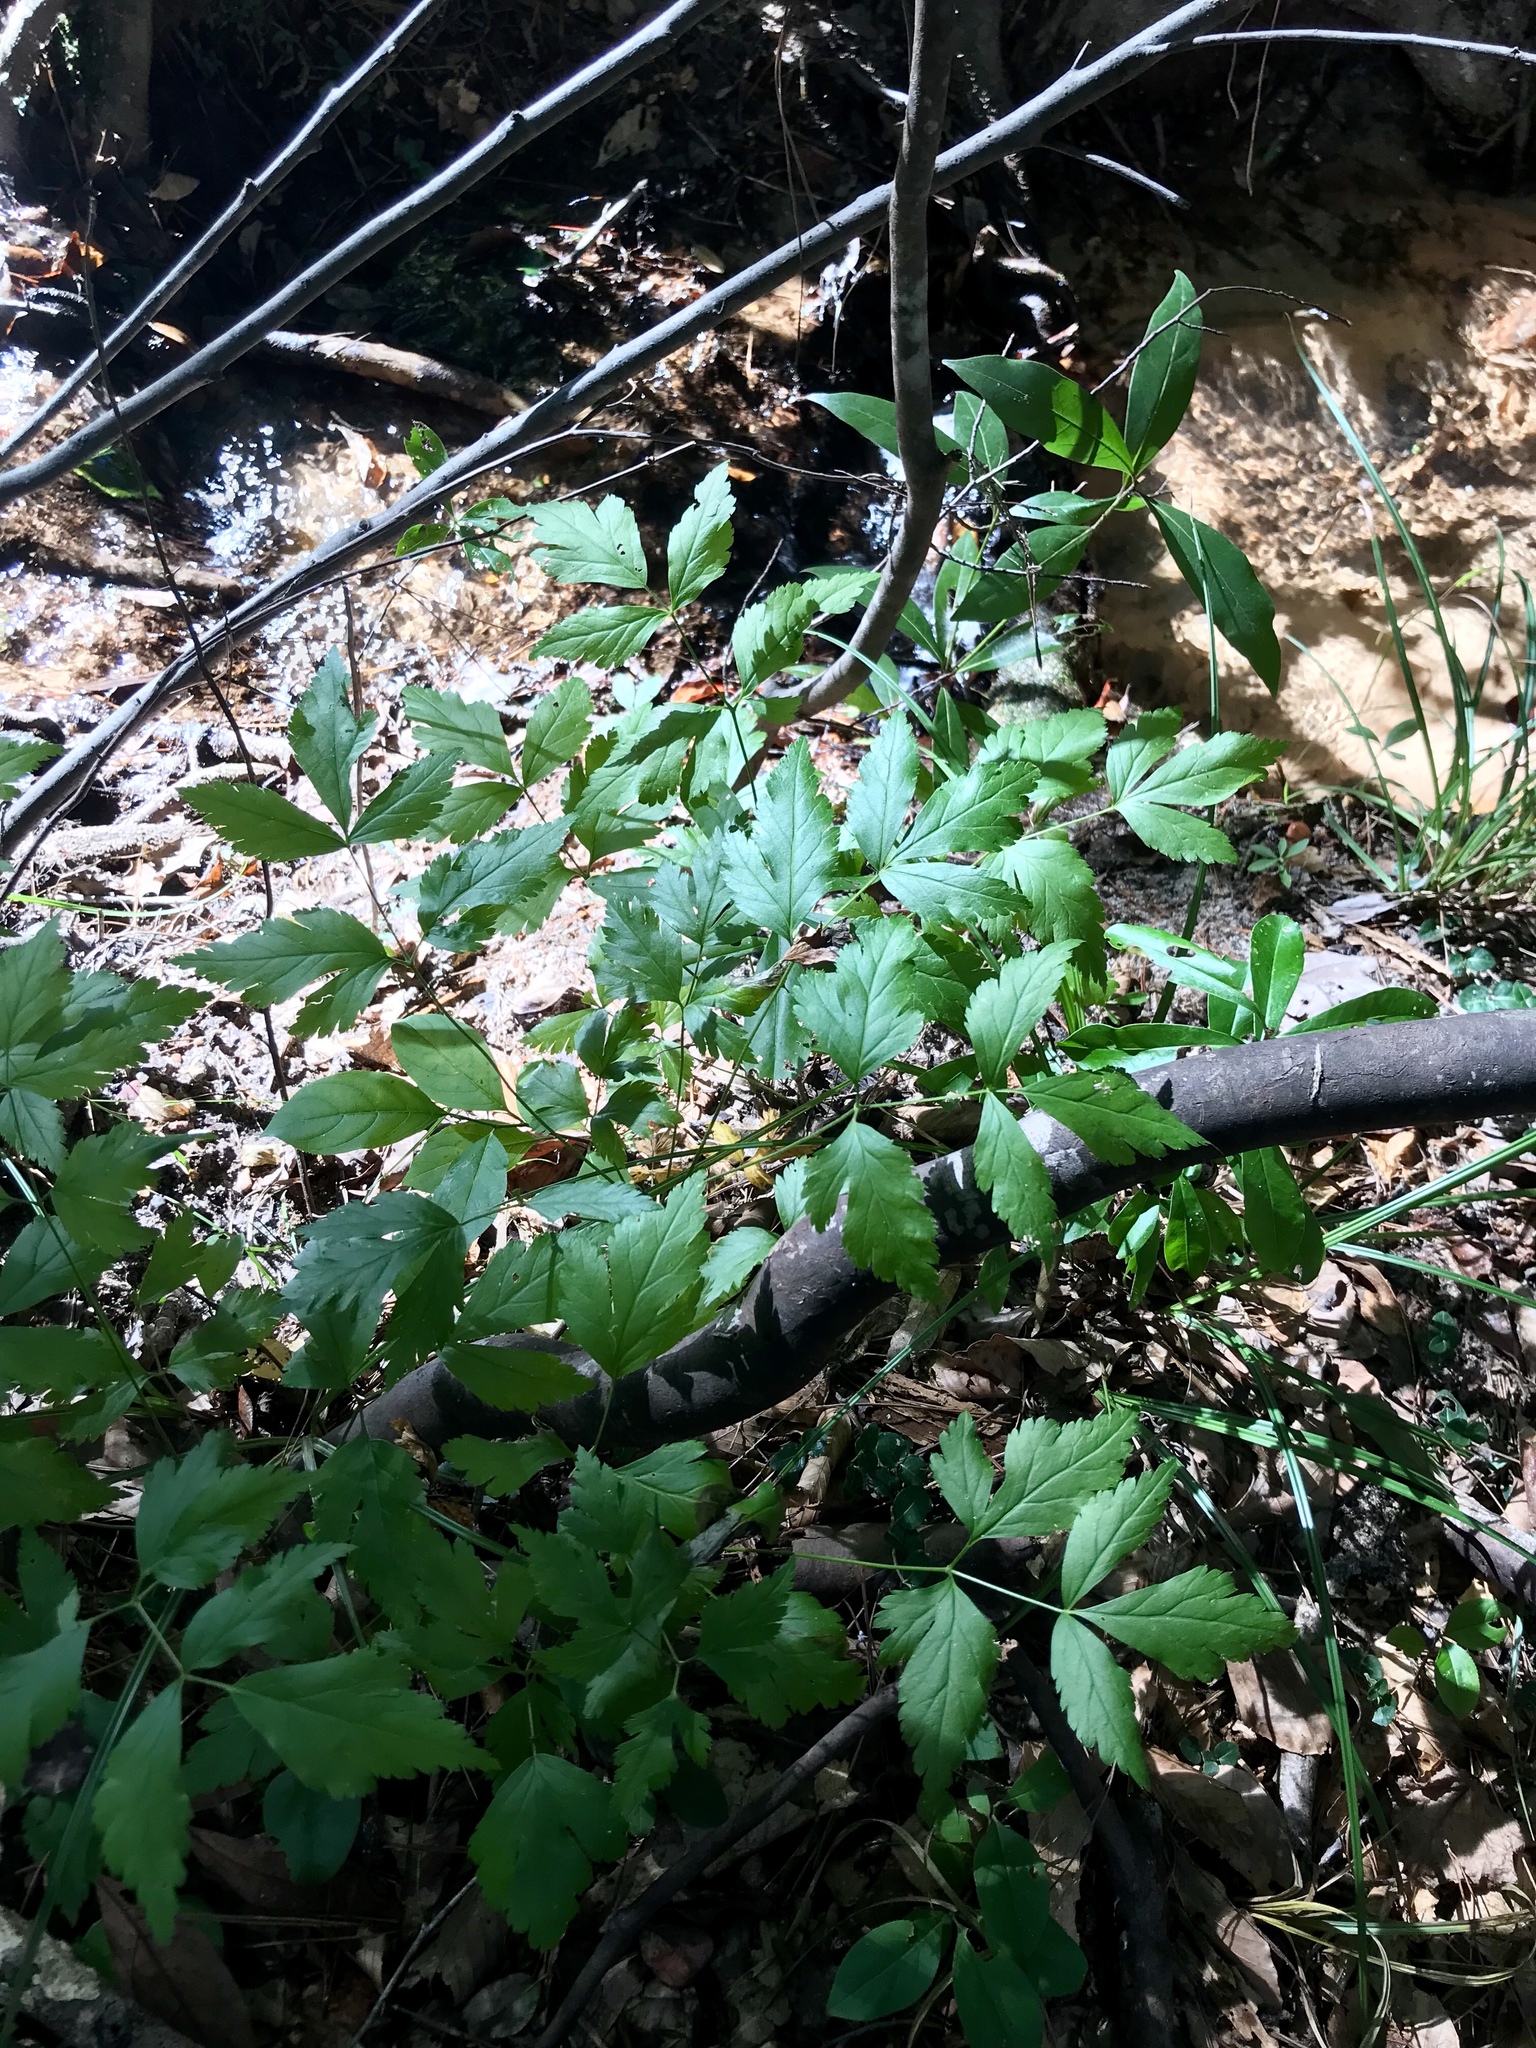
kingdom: Plantae
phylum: Tracheophyta
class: Magnoliopsida
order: Ranunculales
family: Ranunculaceae
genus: Xanthorhiza
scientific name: Xanthorhiza simplicissima
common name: Yellowroot
